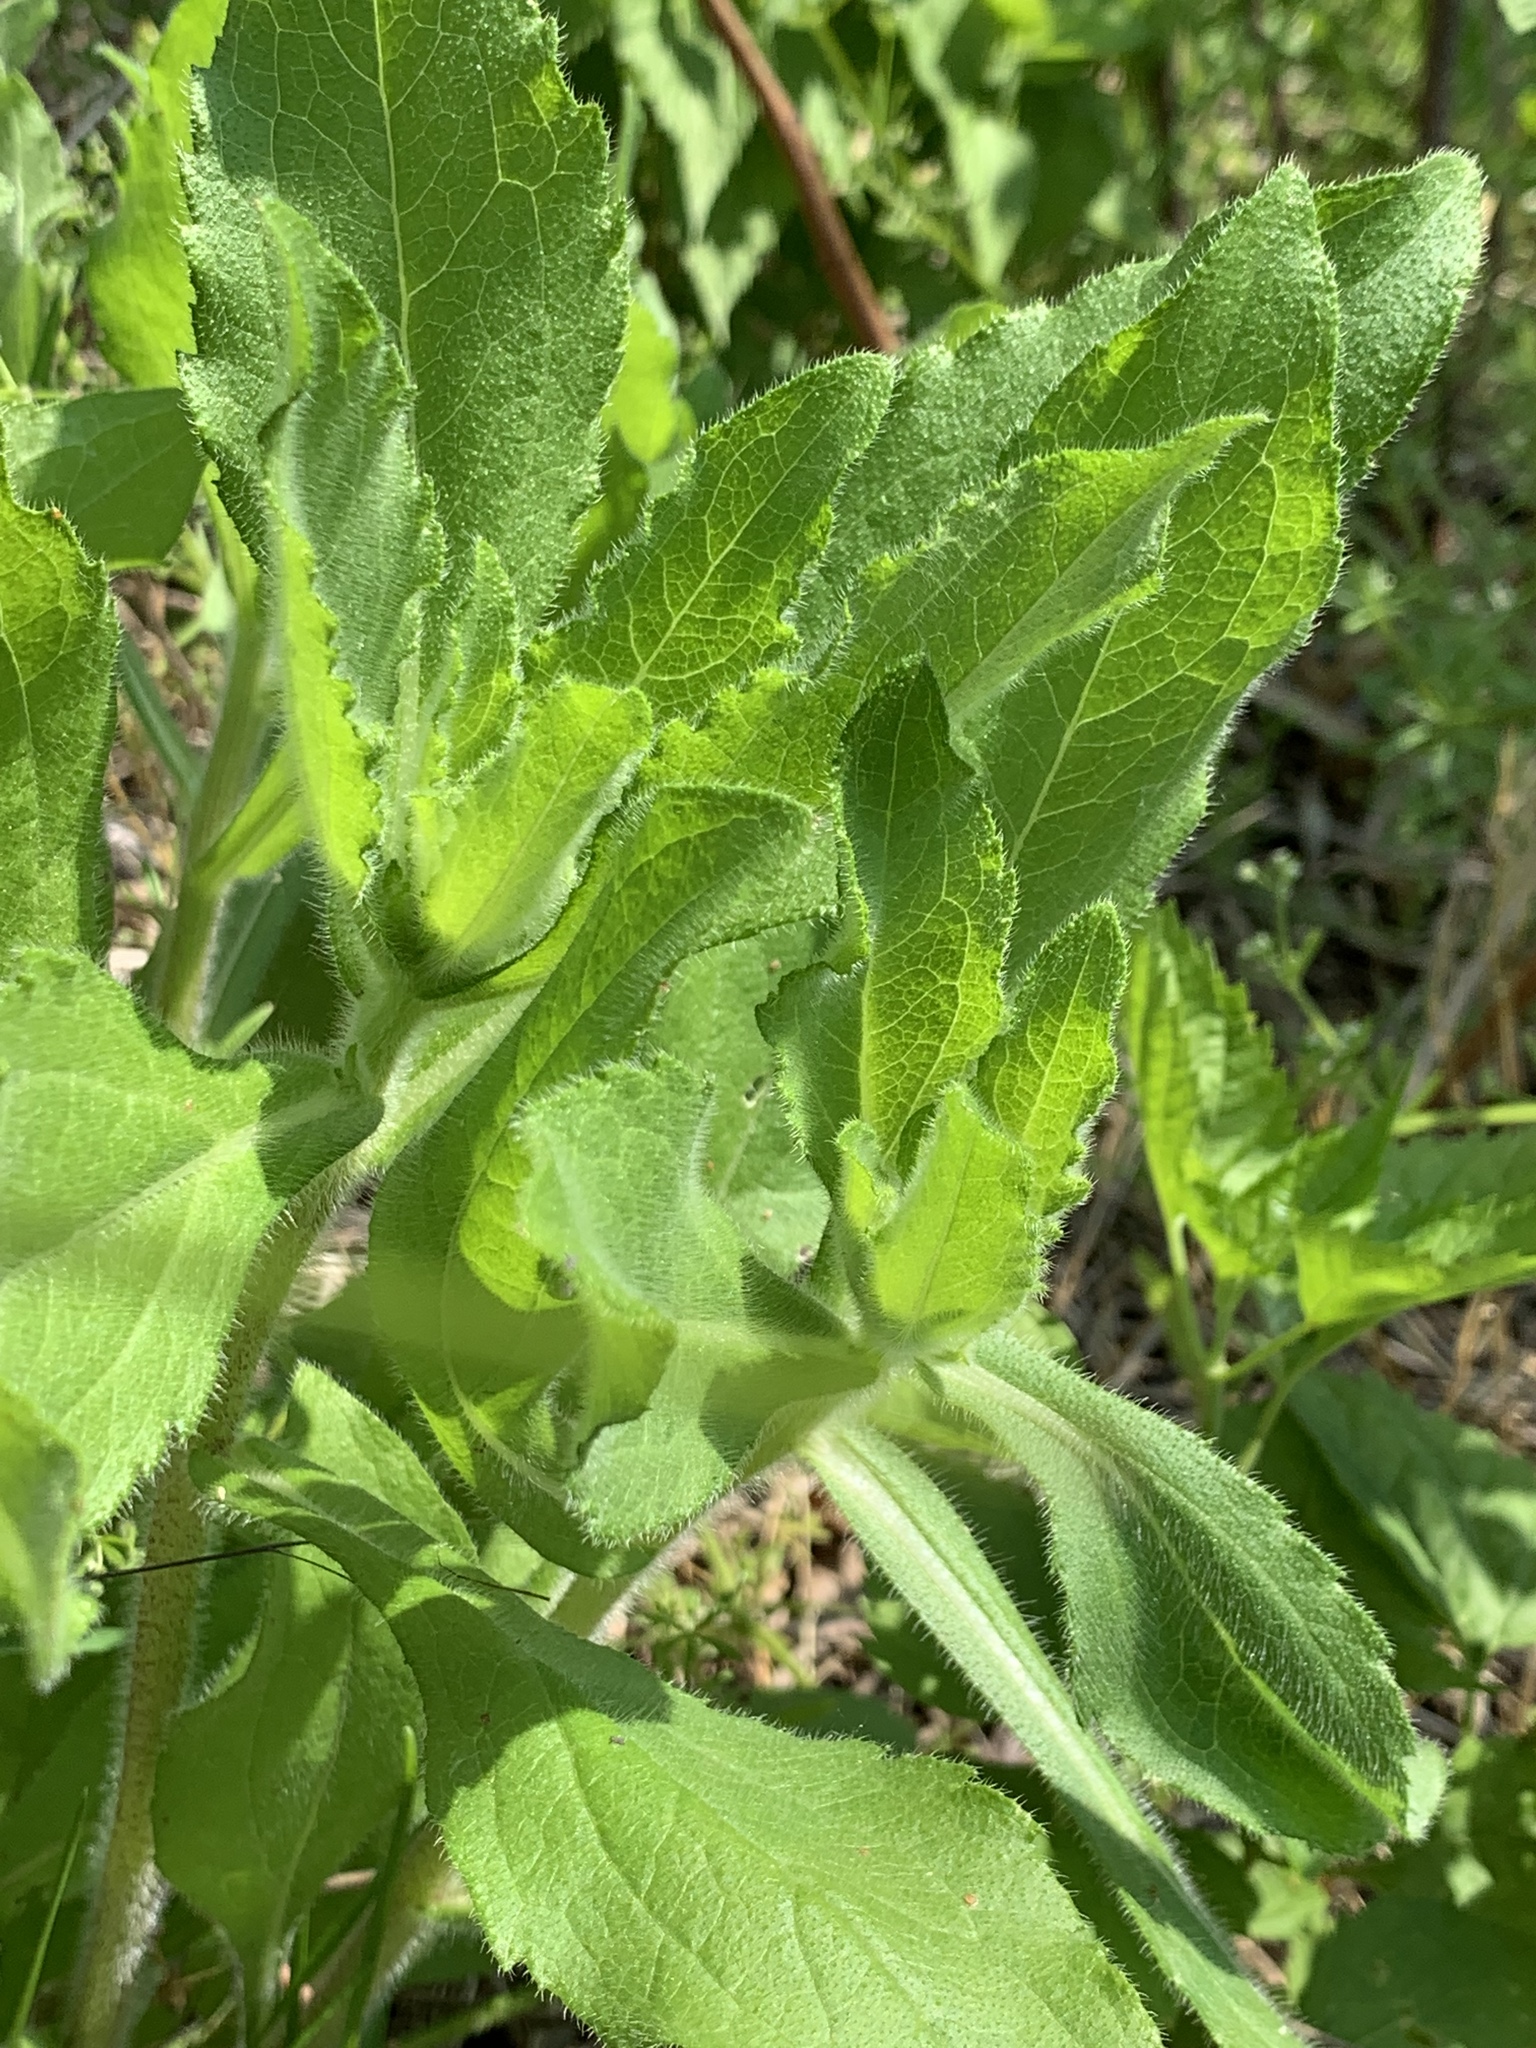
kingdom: Plantae
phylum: Tracheophyta
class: Magnoliopsida
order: Asterales
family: Asteraceae
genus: Erigeron
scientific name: Erigeron annuus
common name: Tall fleabane
